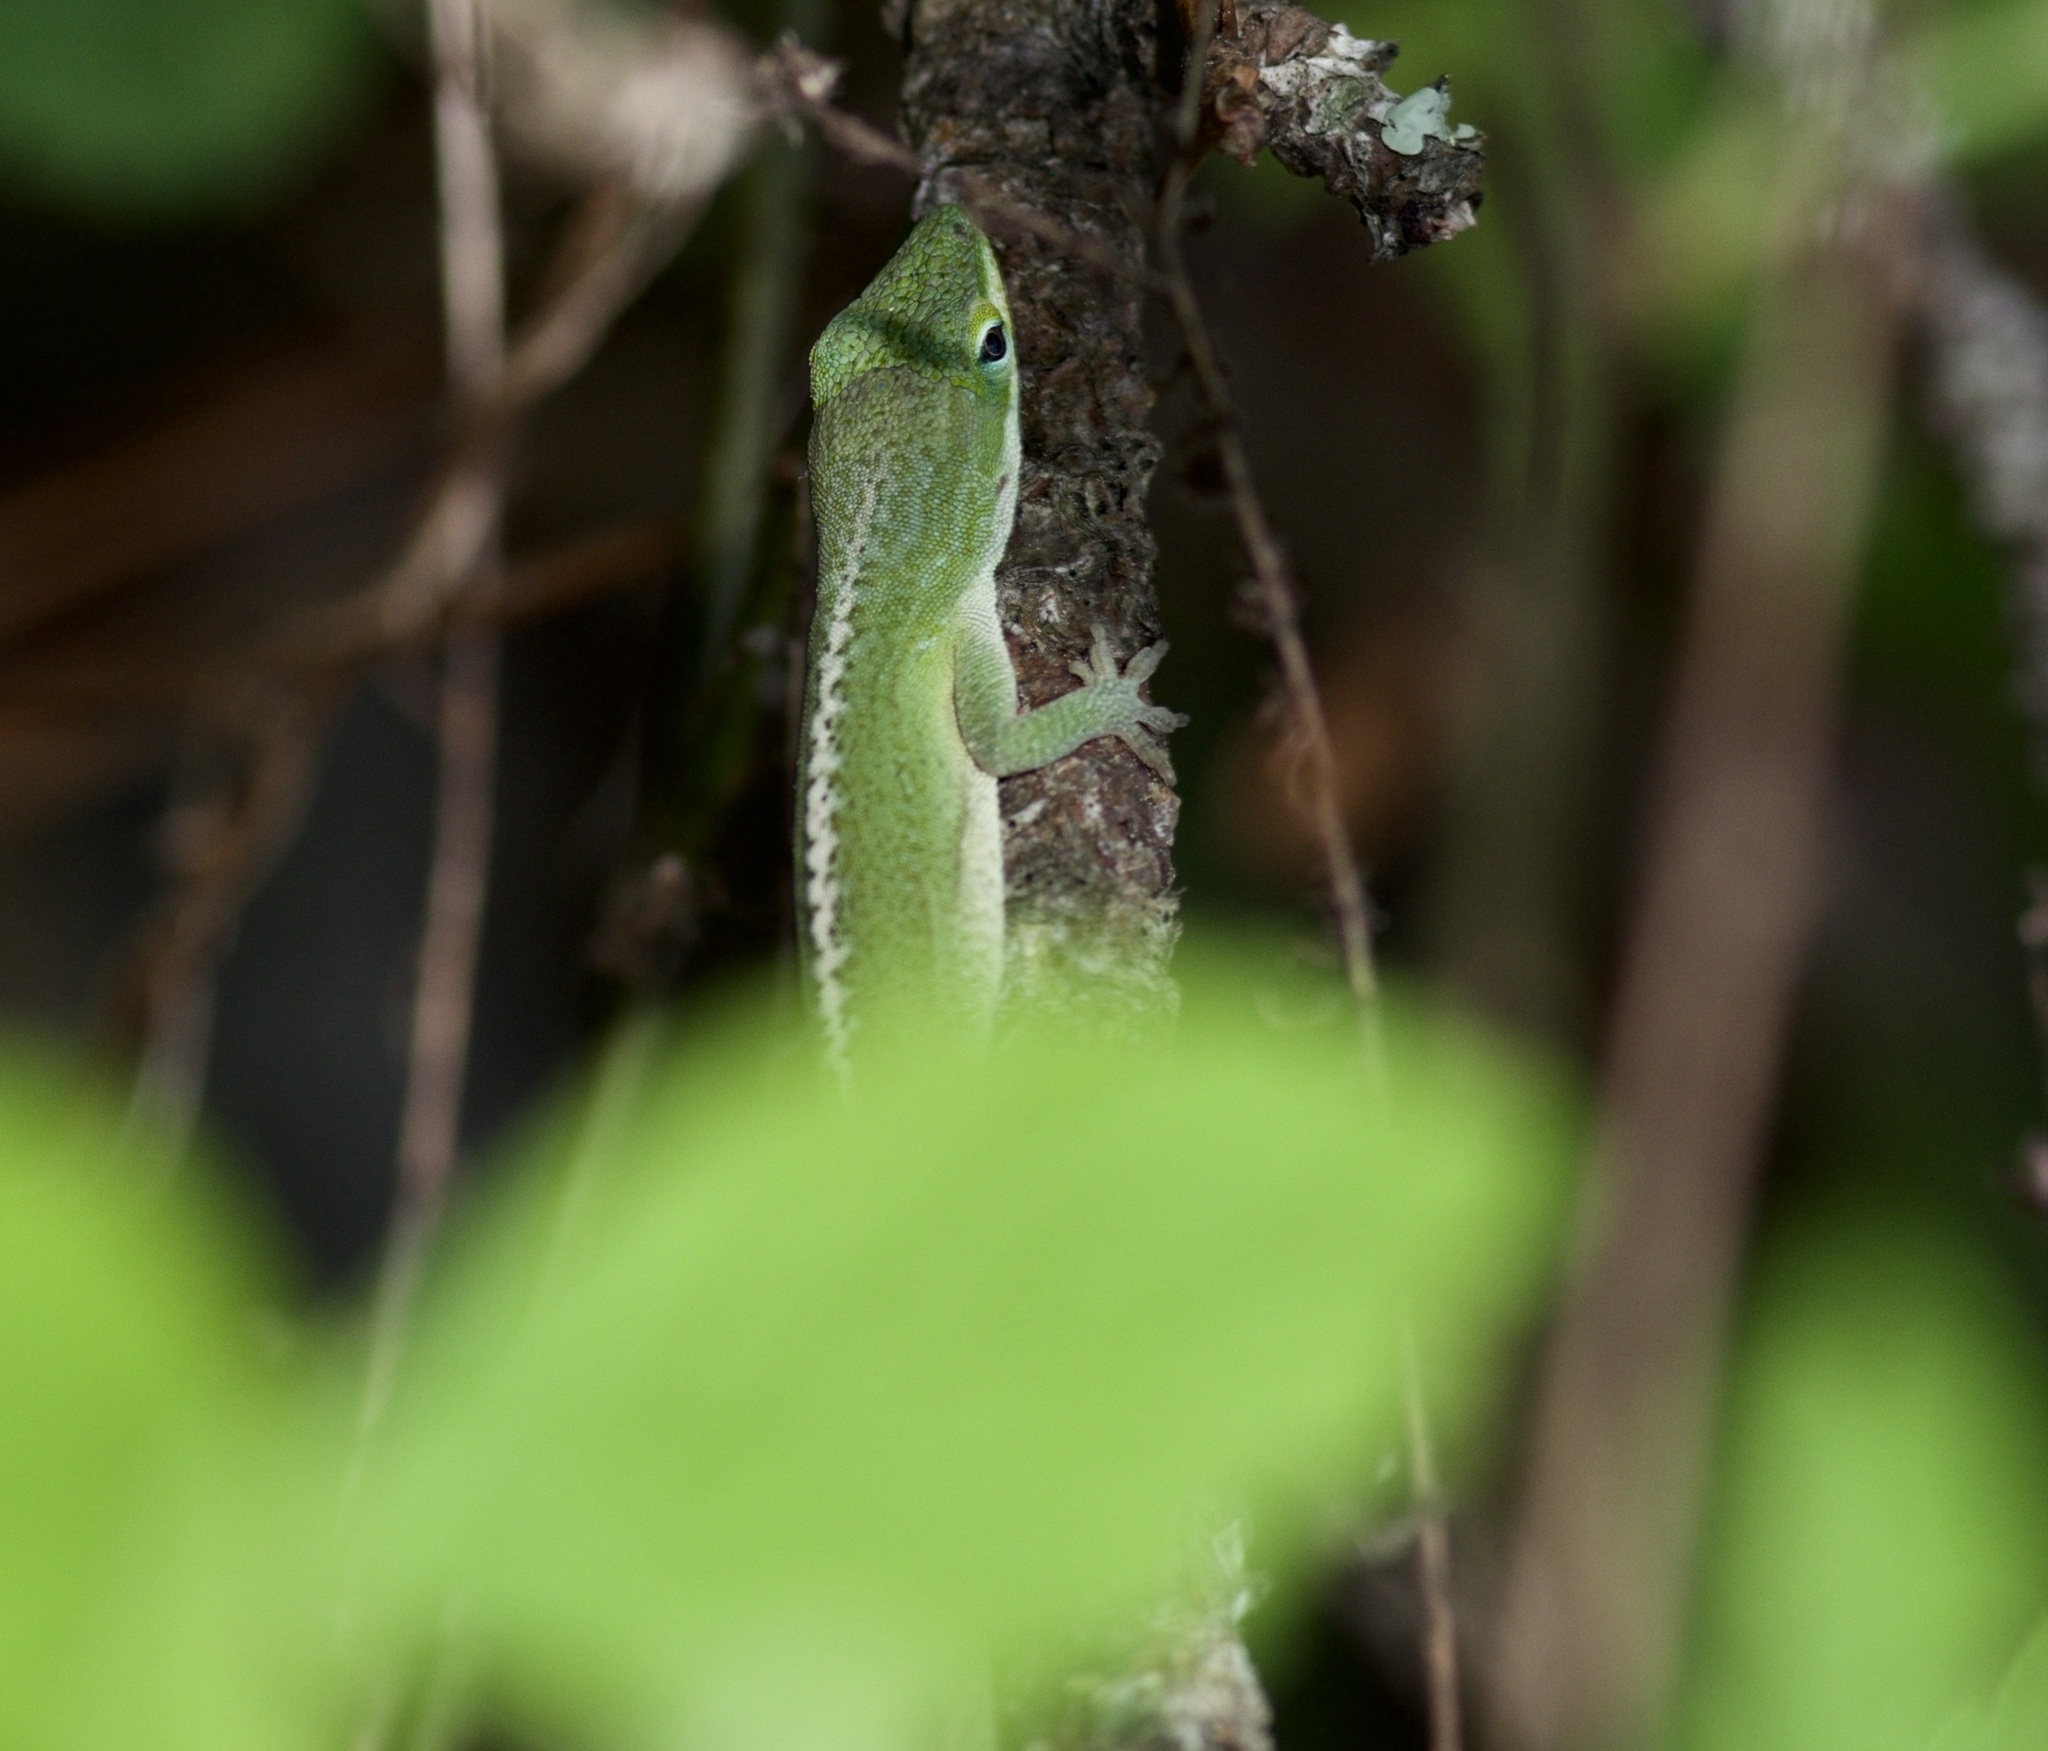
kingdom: Animalia
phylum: Chordata
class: Squamata
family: Dactyloidae
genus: Anolis
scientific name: Anolis carolinensis
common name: Green anole
